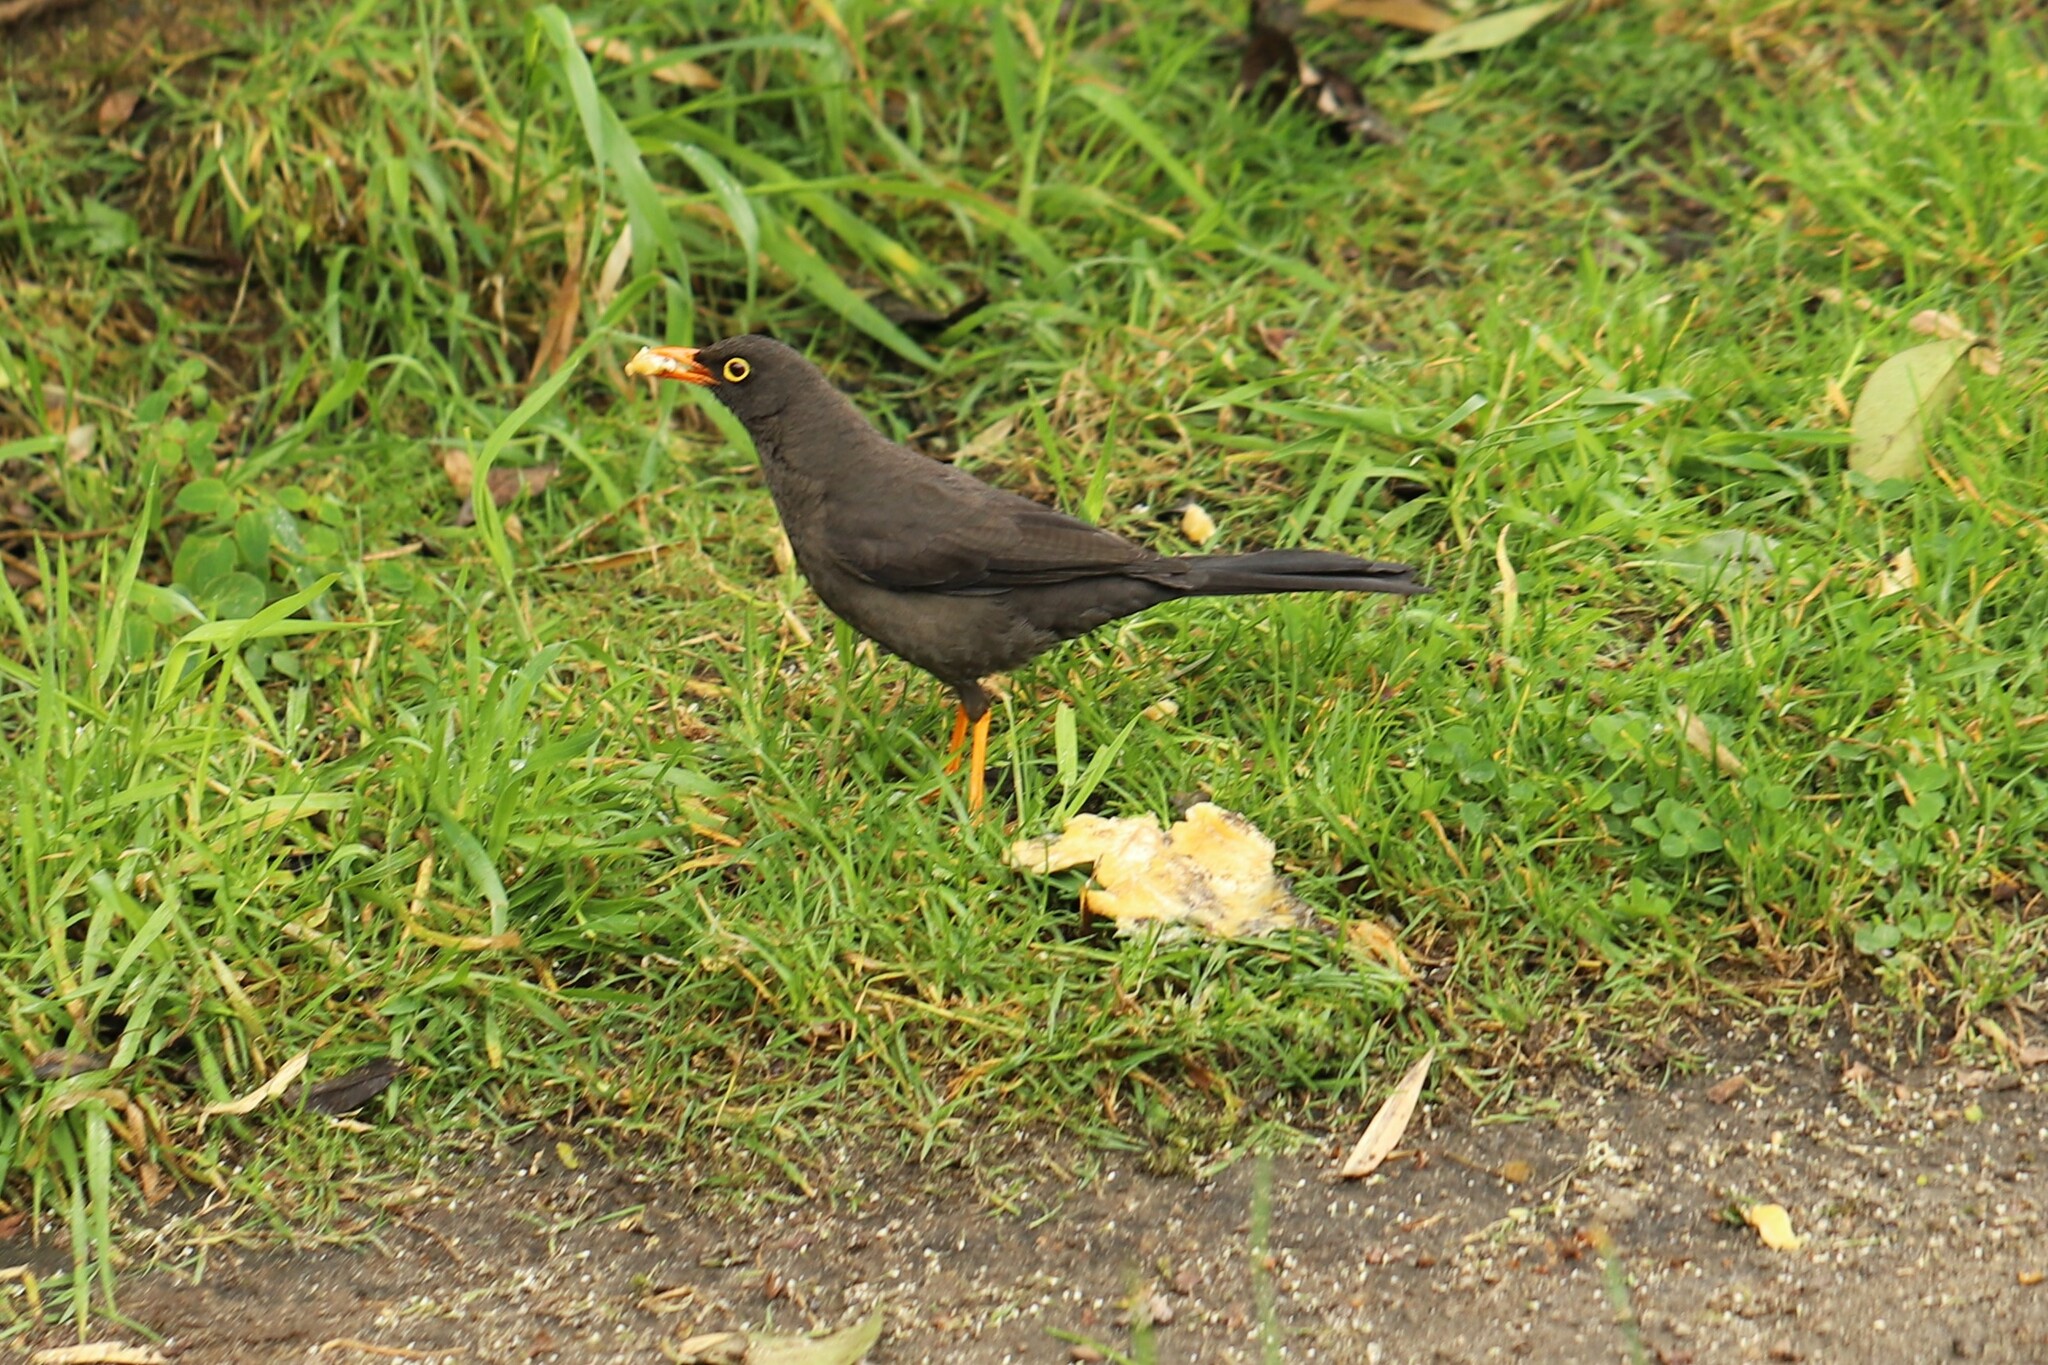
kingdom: Animalia
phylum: Chordata
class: Aves
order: Passeriformes
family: Turdidae
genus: Turdus
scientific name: Turdus fuscater
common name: Great thrush
